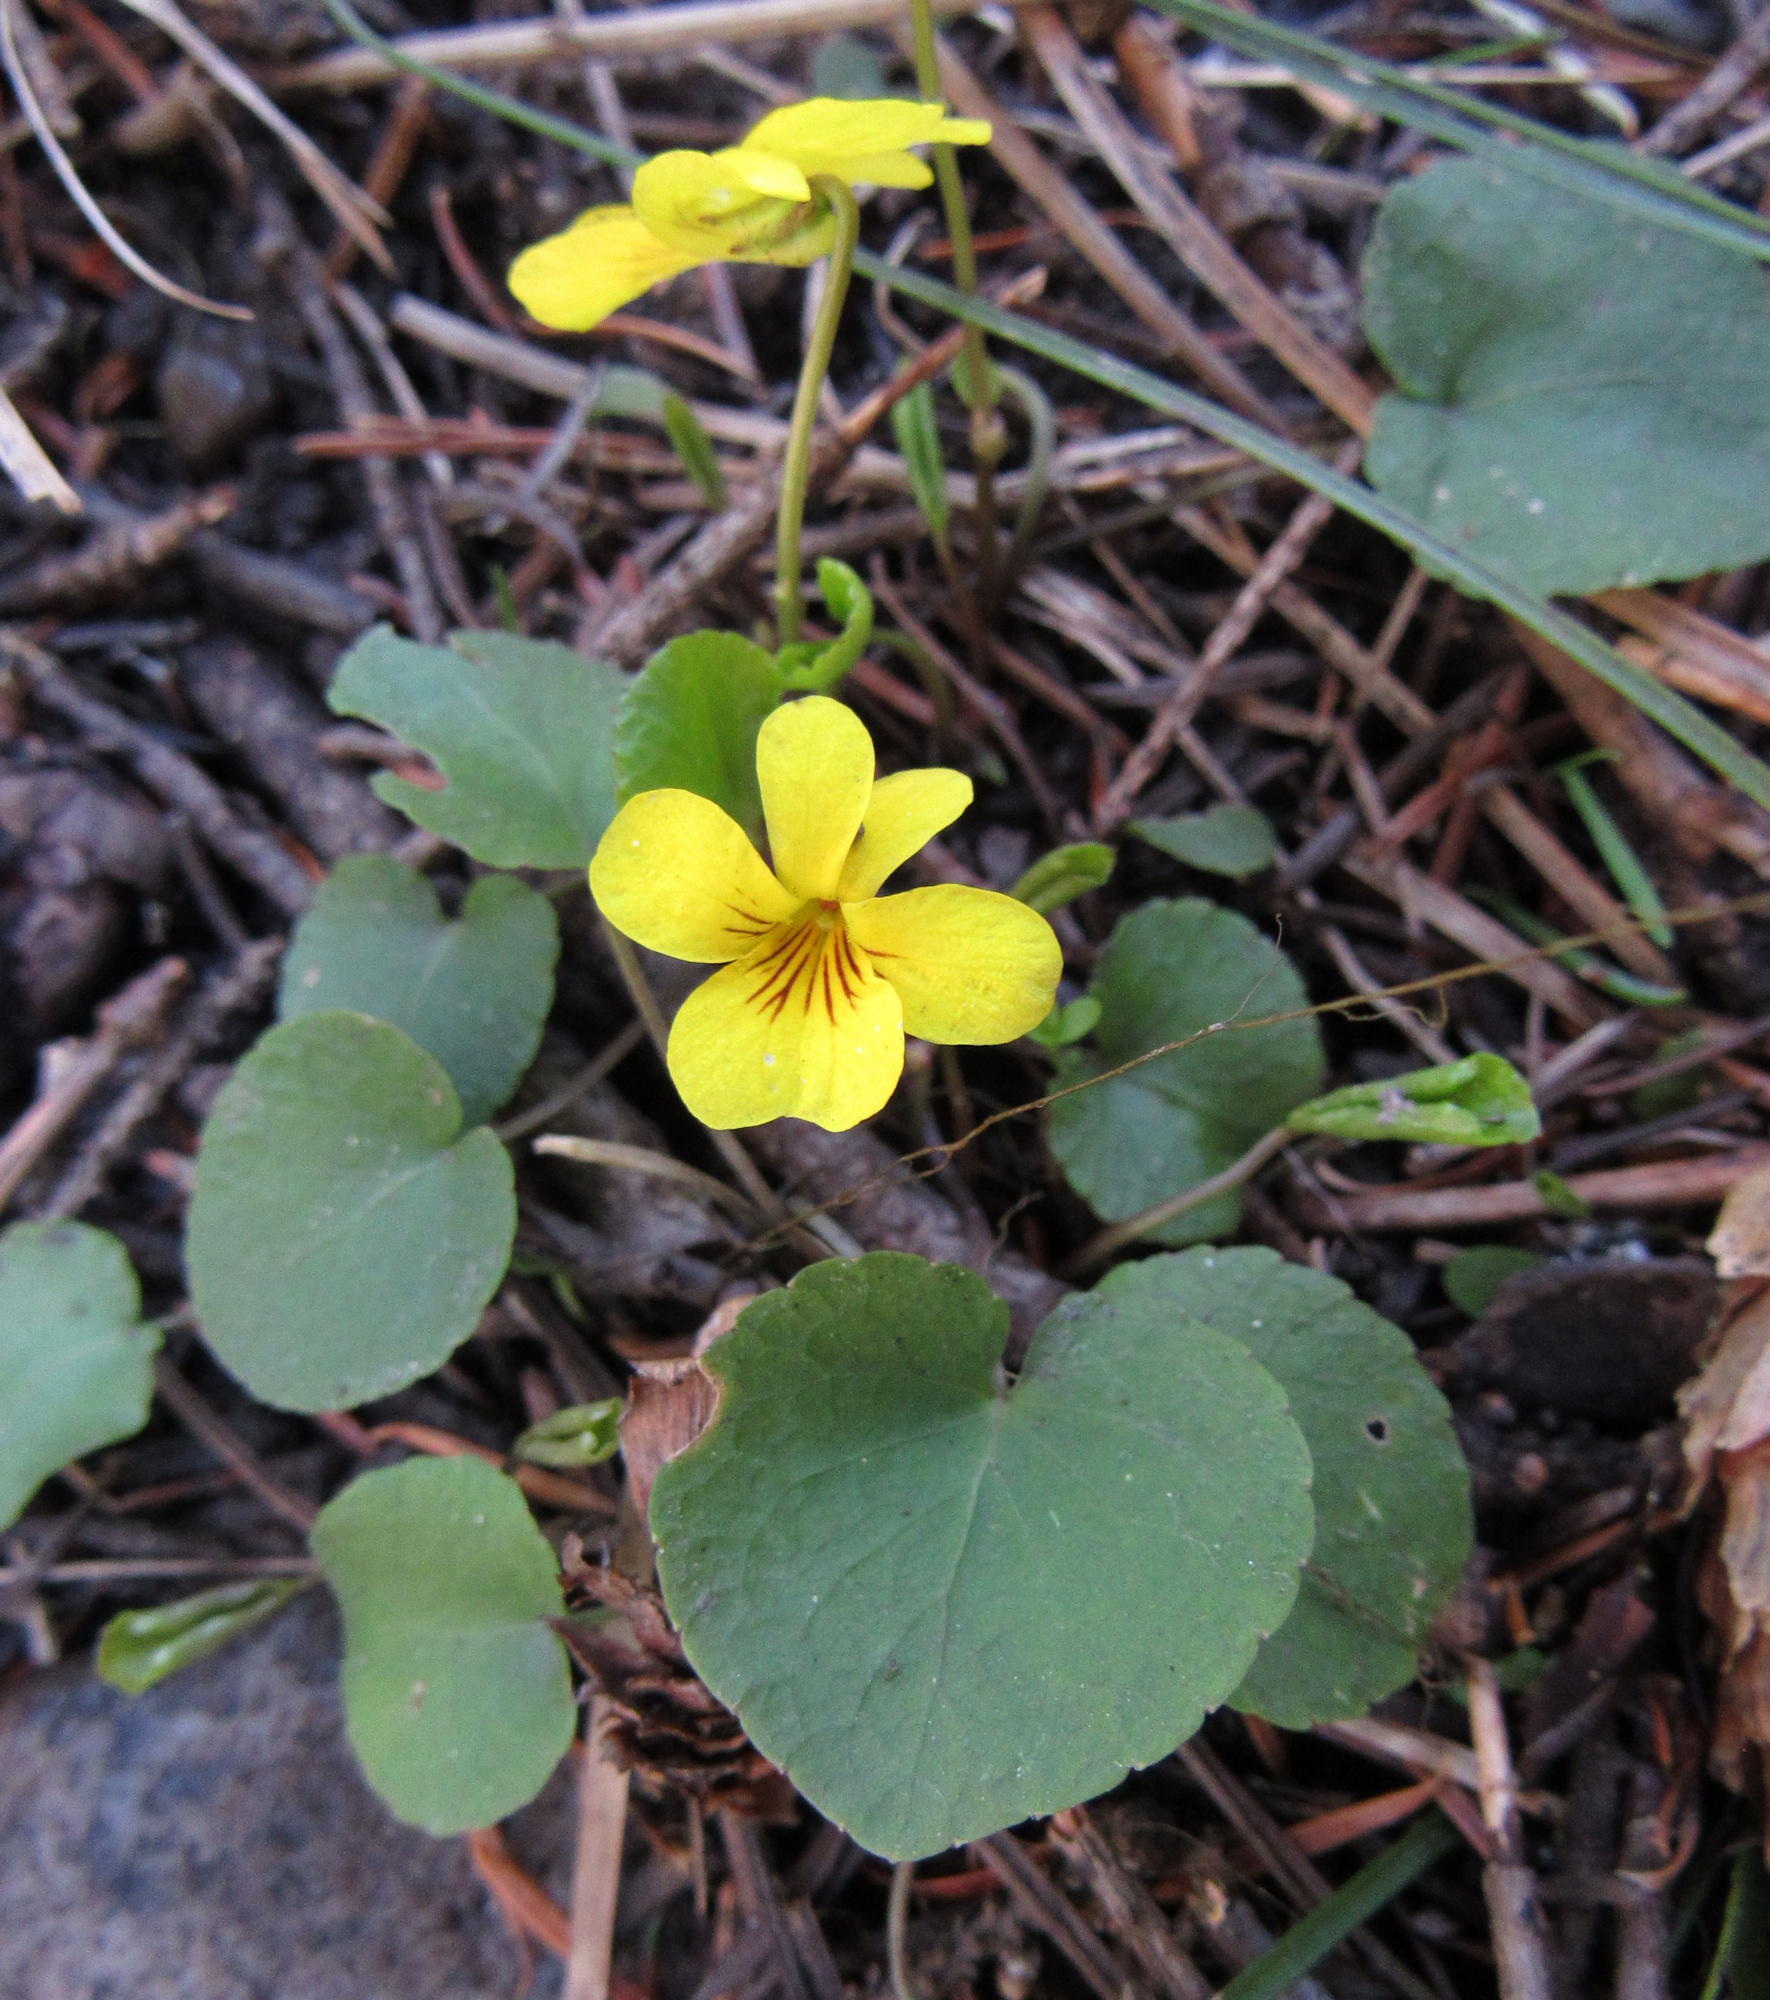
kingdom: Plantae
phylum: Tracheophyta
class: Magnoliopsida
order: Malpighiales
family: Violaceae
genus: Viola
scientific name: Viola orbiculata
